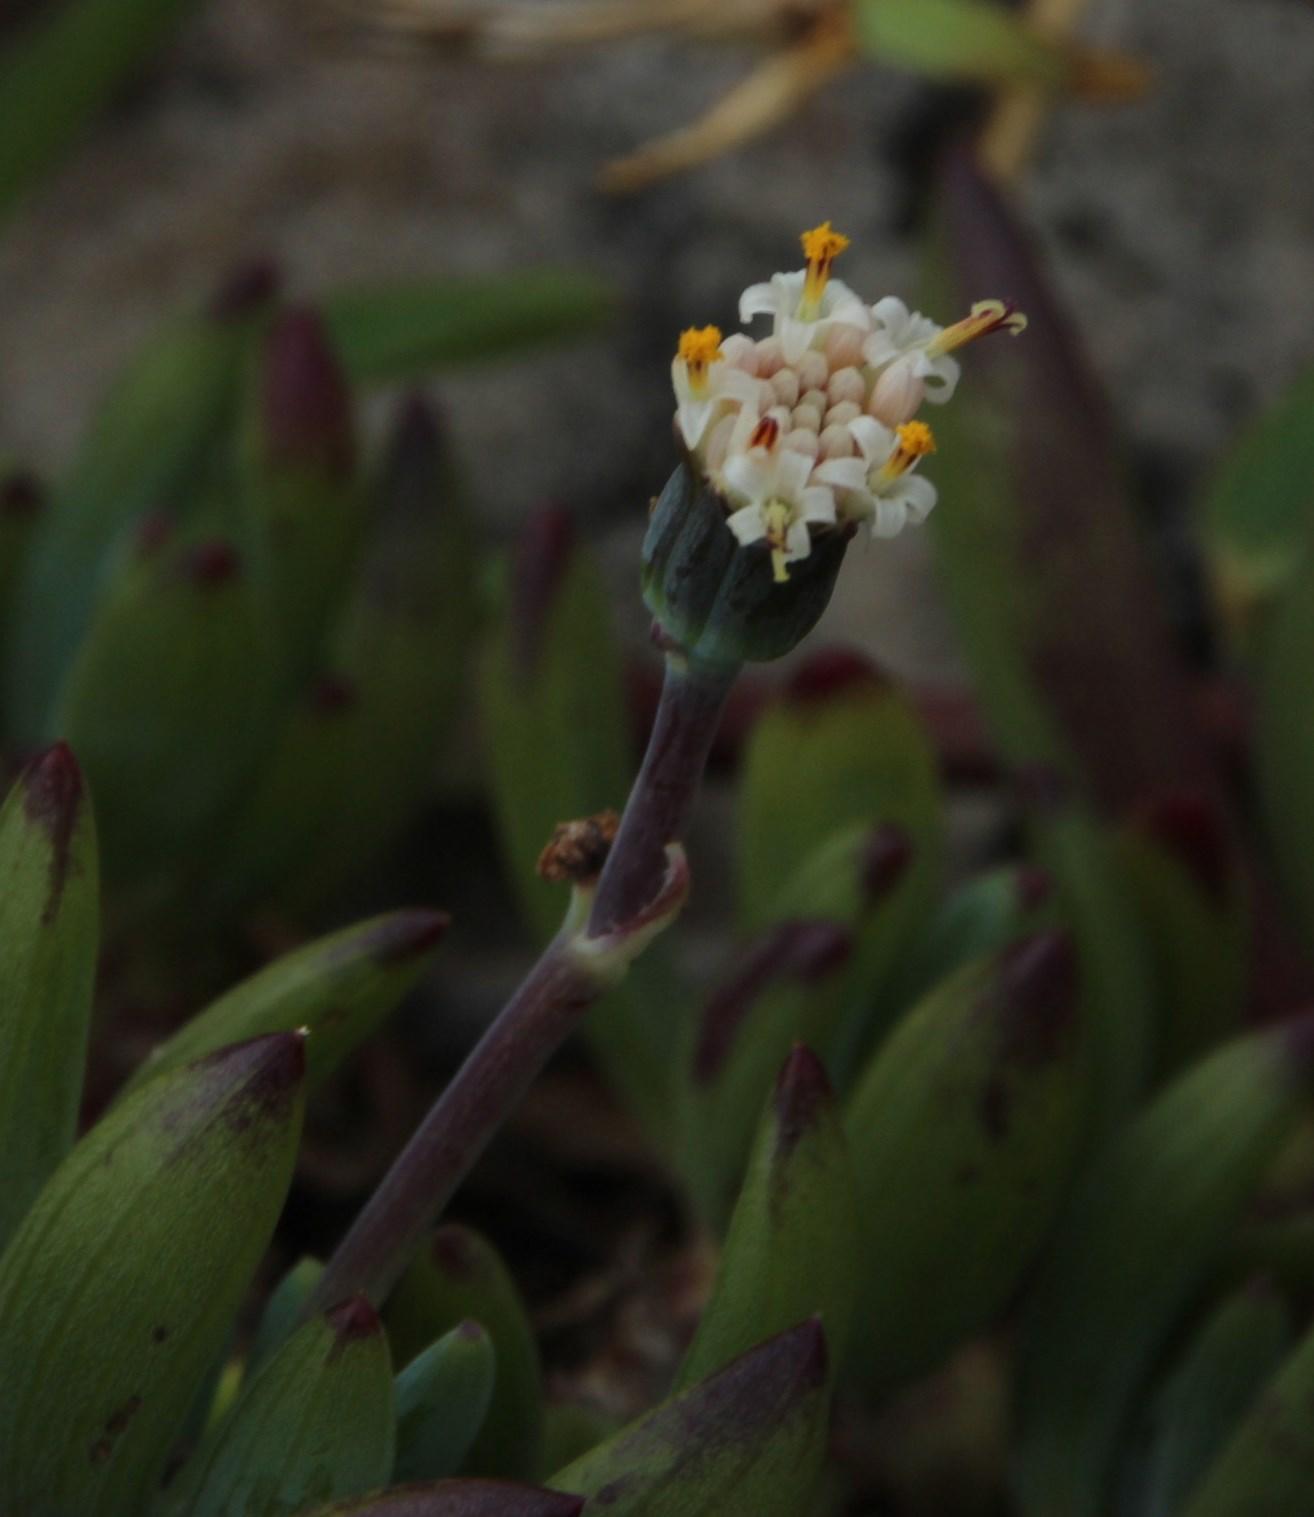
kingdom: Plantae
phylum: Tracheophyta
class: Magnoliopsida
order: Asterales
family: Asteraceae
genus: Curio
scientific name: Curio crassulifolius
